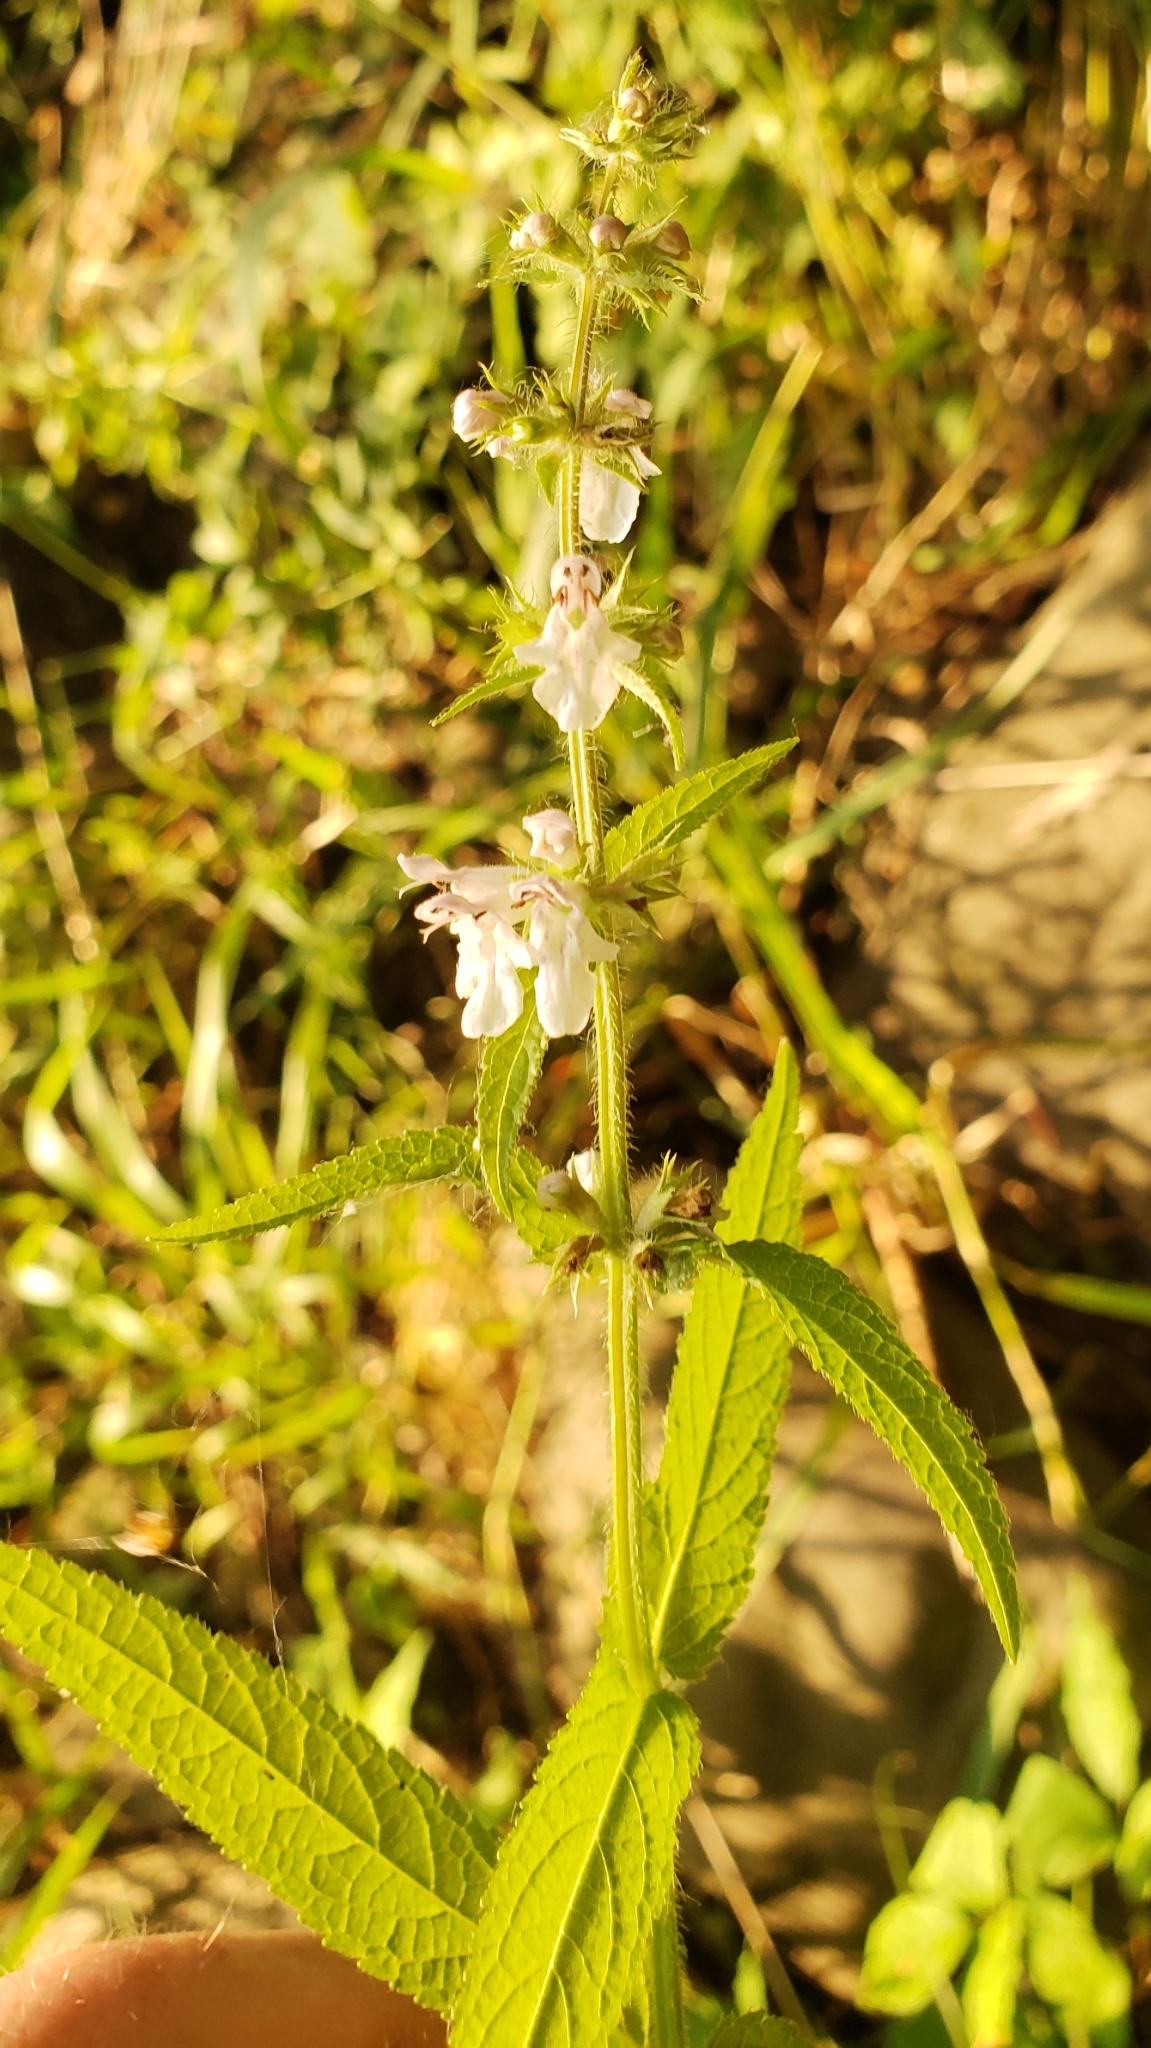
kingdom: Plantae
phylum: Tracheophyta
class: Magnoliopsida
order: Lamiales
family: Lamiaceae
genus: Stachys
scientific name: Stachys palustris
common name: Marsh woundwort
